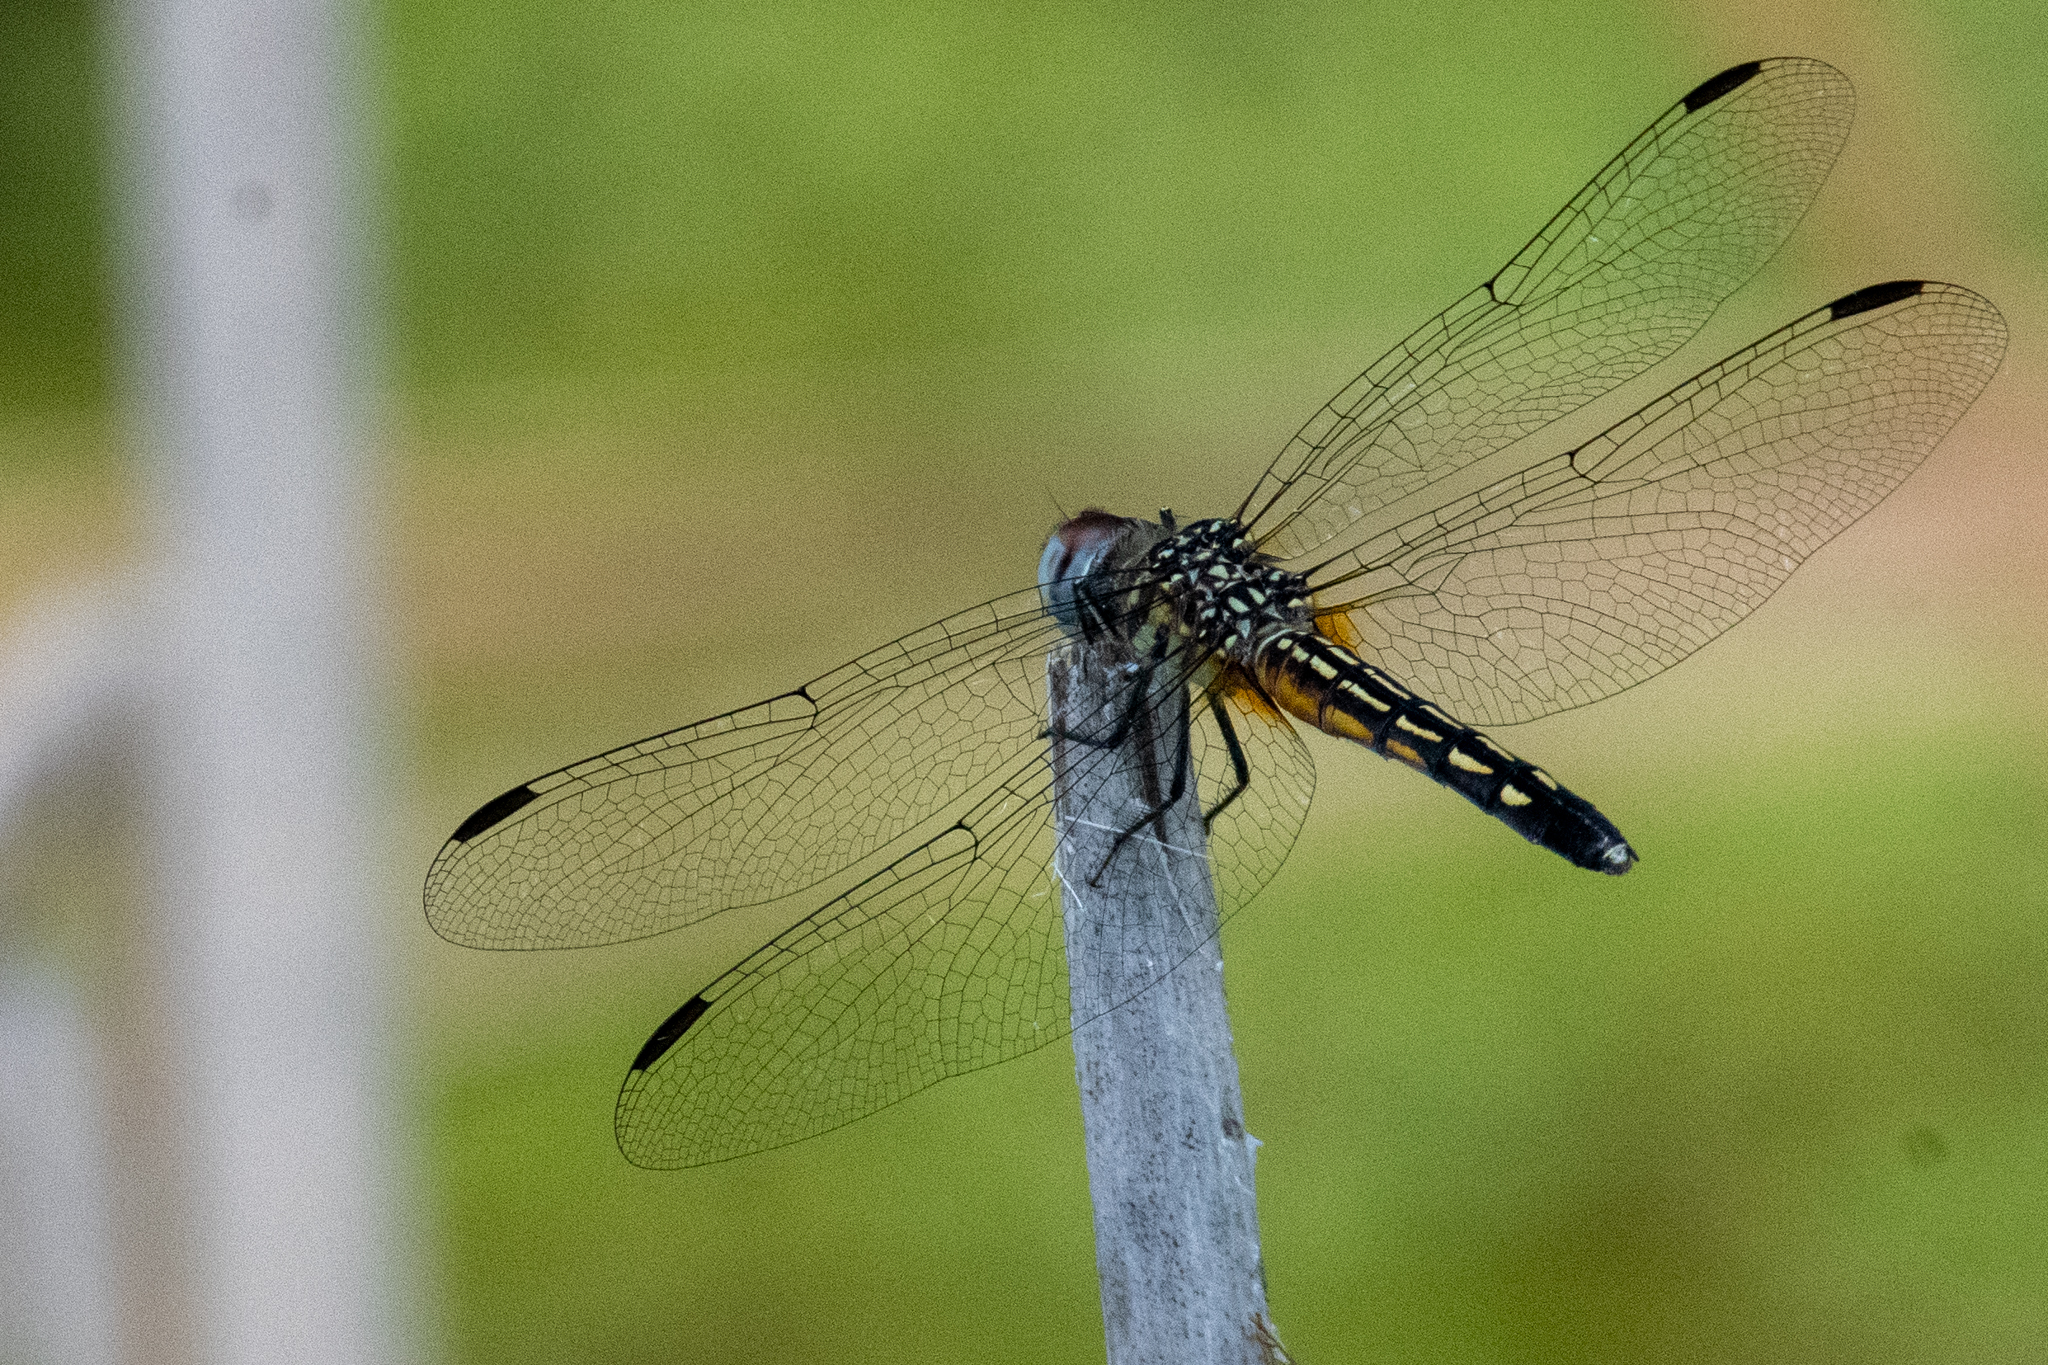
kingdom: Animalia
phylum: Arthropoda
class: Insecta
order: Odonata
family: Libellulidae
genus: Pachydiplax
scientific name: Pachydiplax longipennis
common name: Blue dasher
